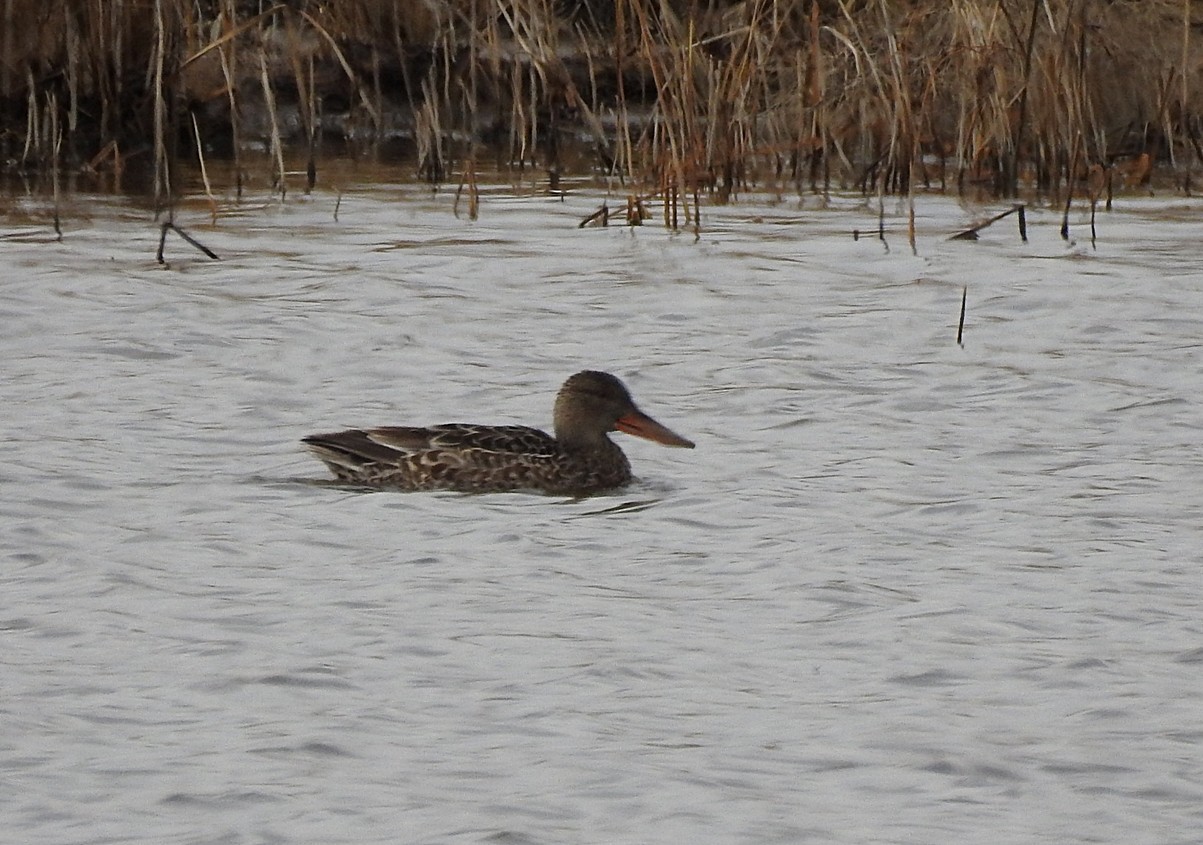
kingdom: Animalia
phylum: Chordata
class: Aves
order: Anseriformes
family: Anatidae
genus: Spatula
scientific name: Spatula clypeata
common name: Northern shoveler
